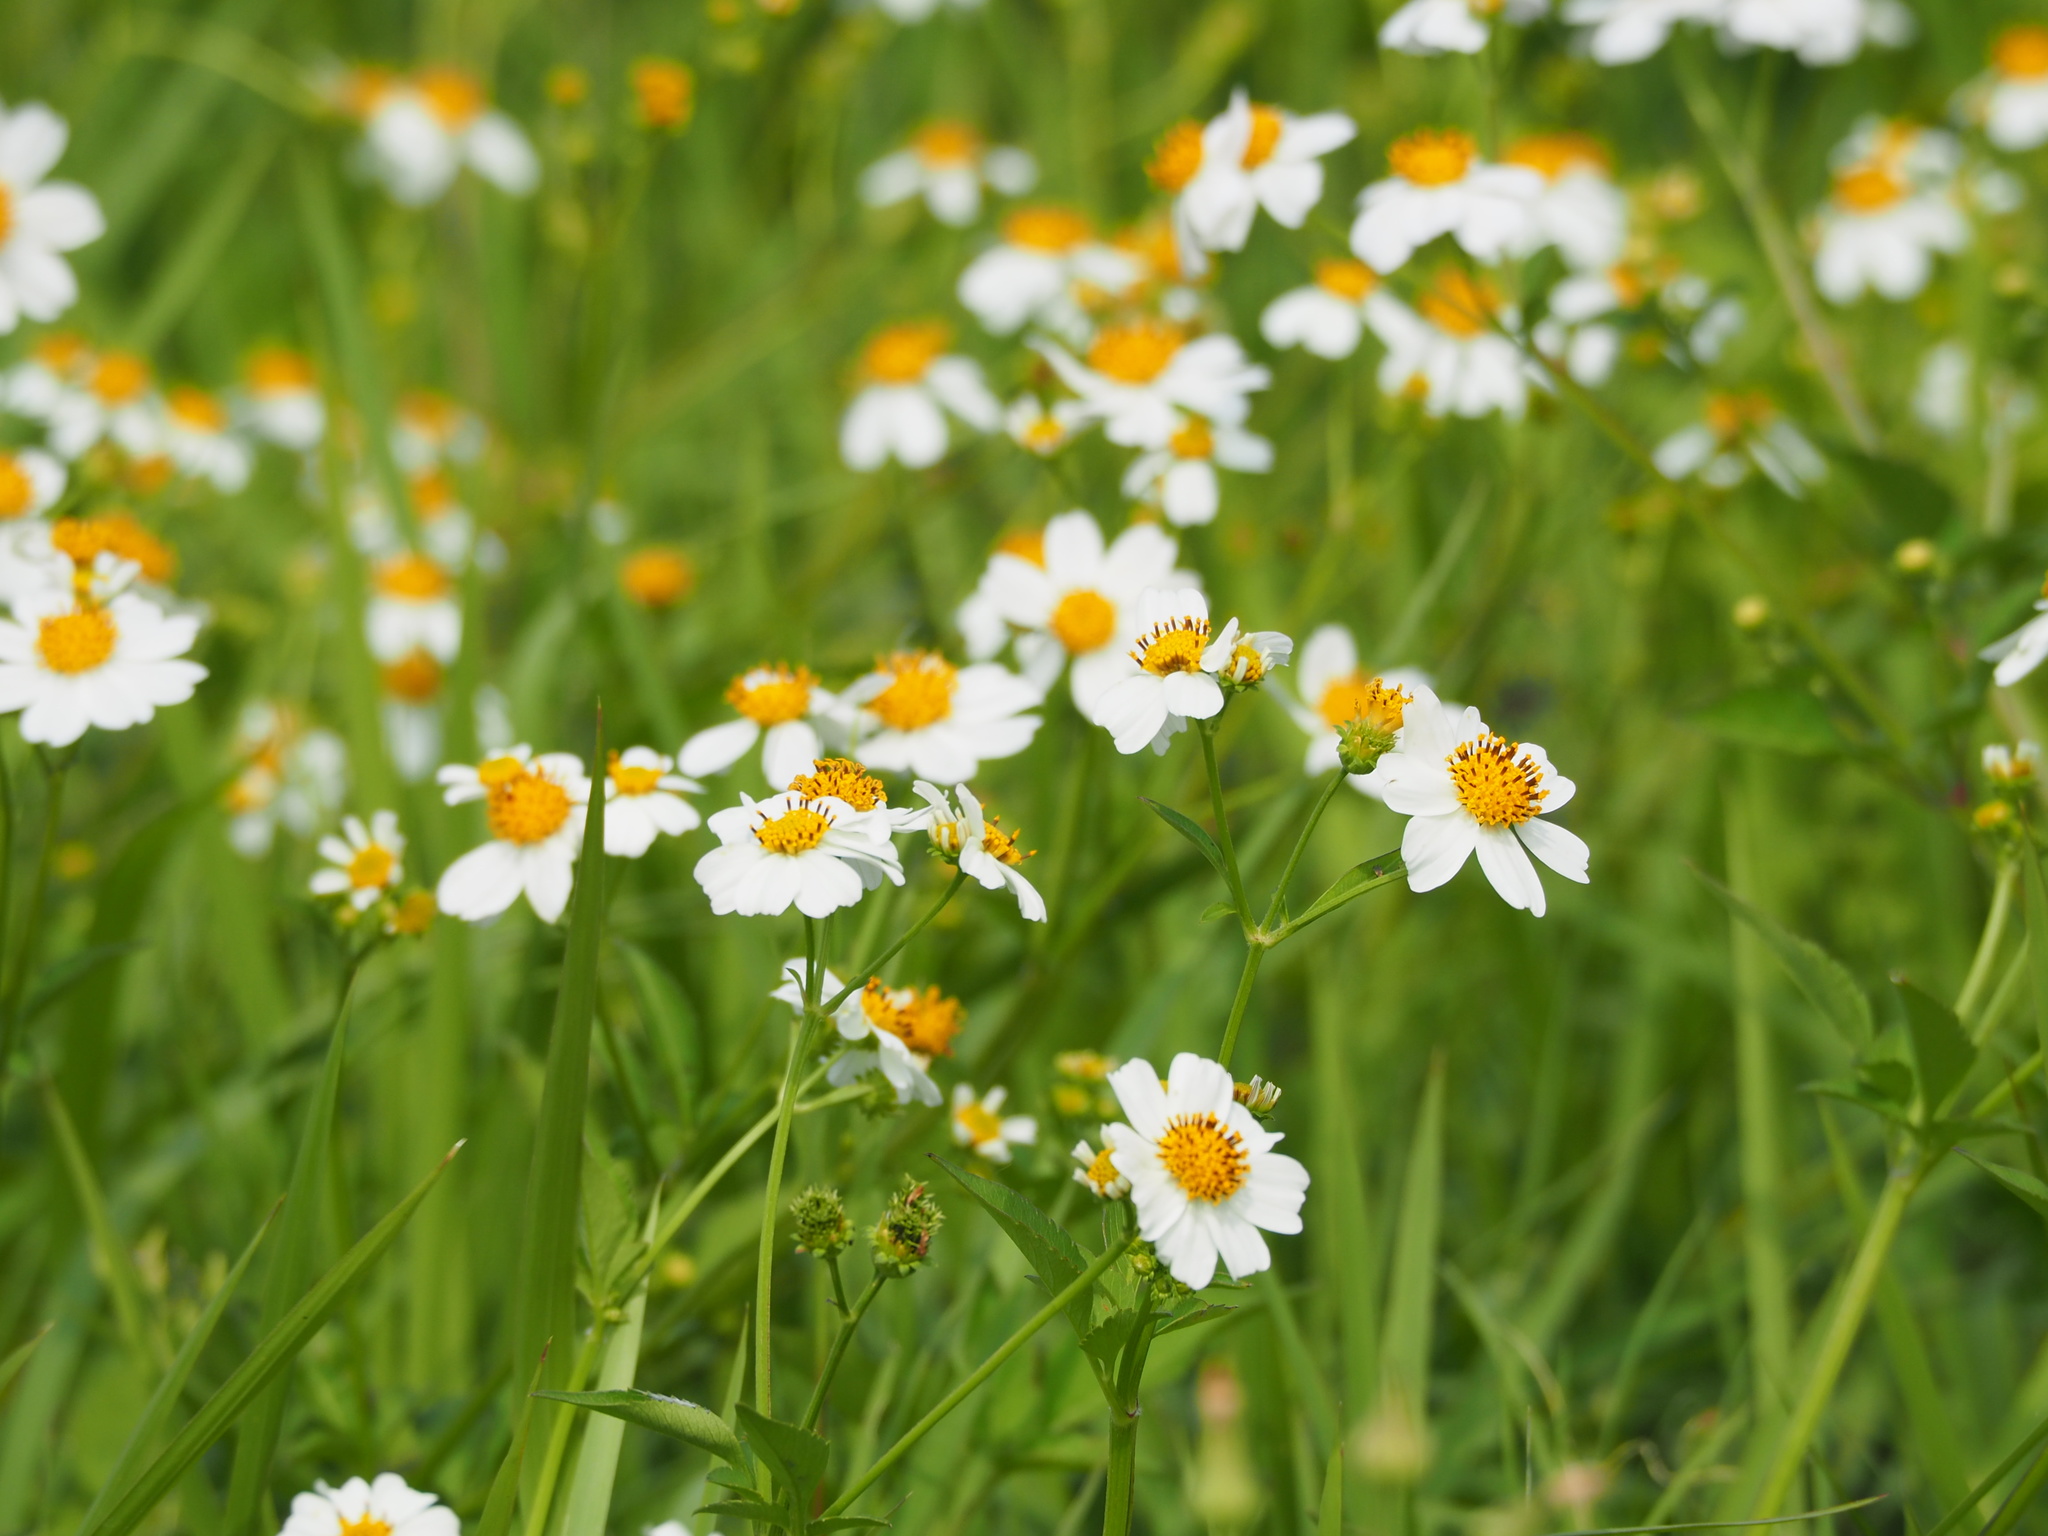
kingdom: Plantae
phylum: Tracheophyta
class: Magnoliopsida
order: Asterales
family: Asteraceae
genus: Bidens
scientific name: Bidens alba
